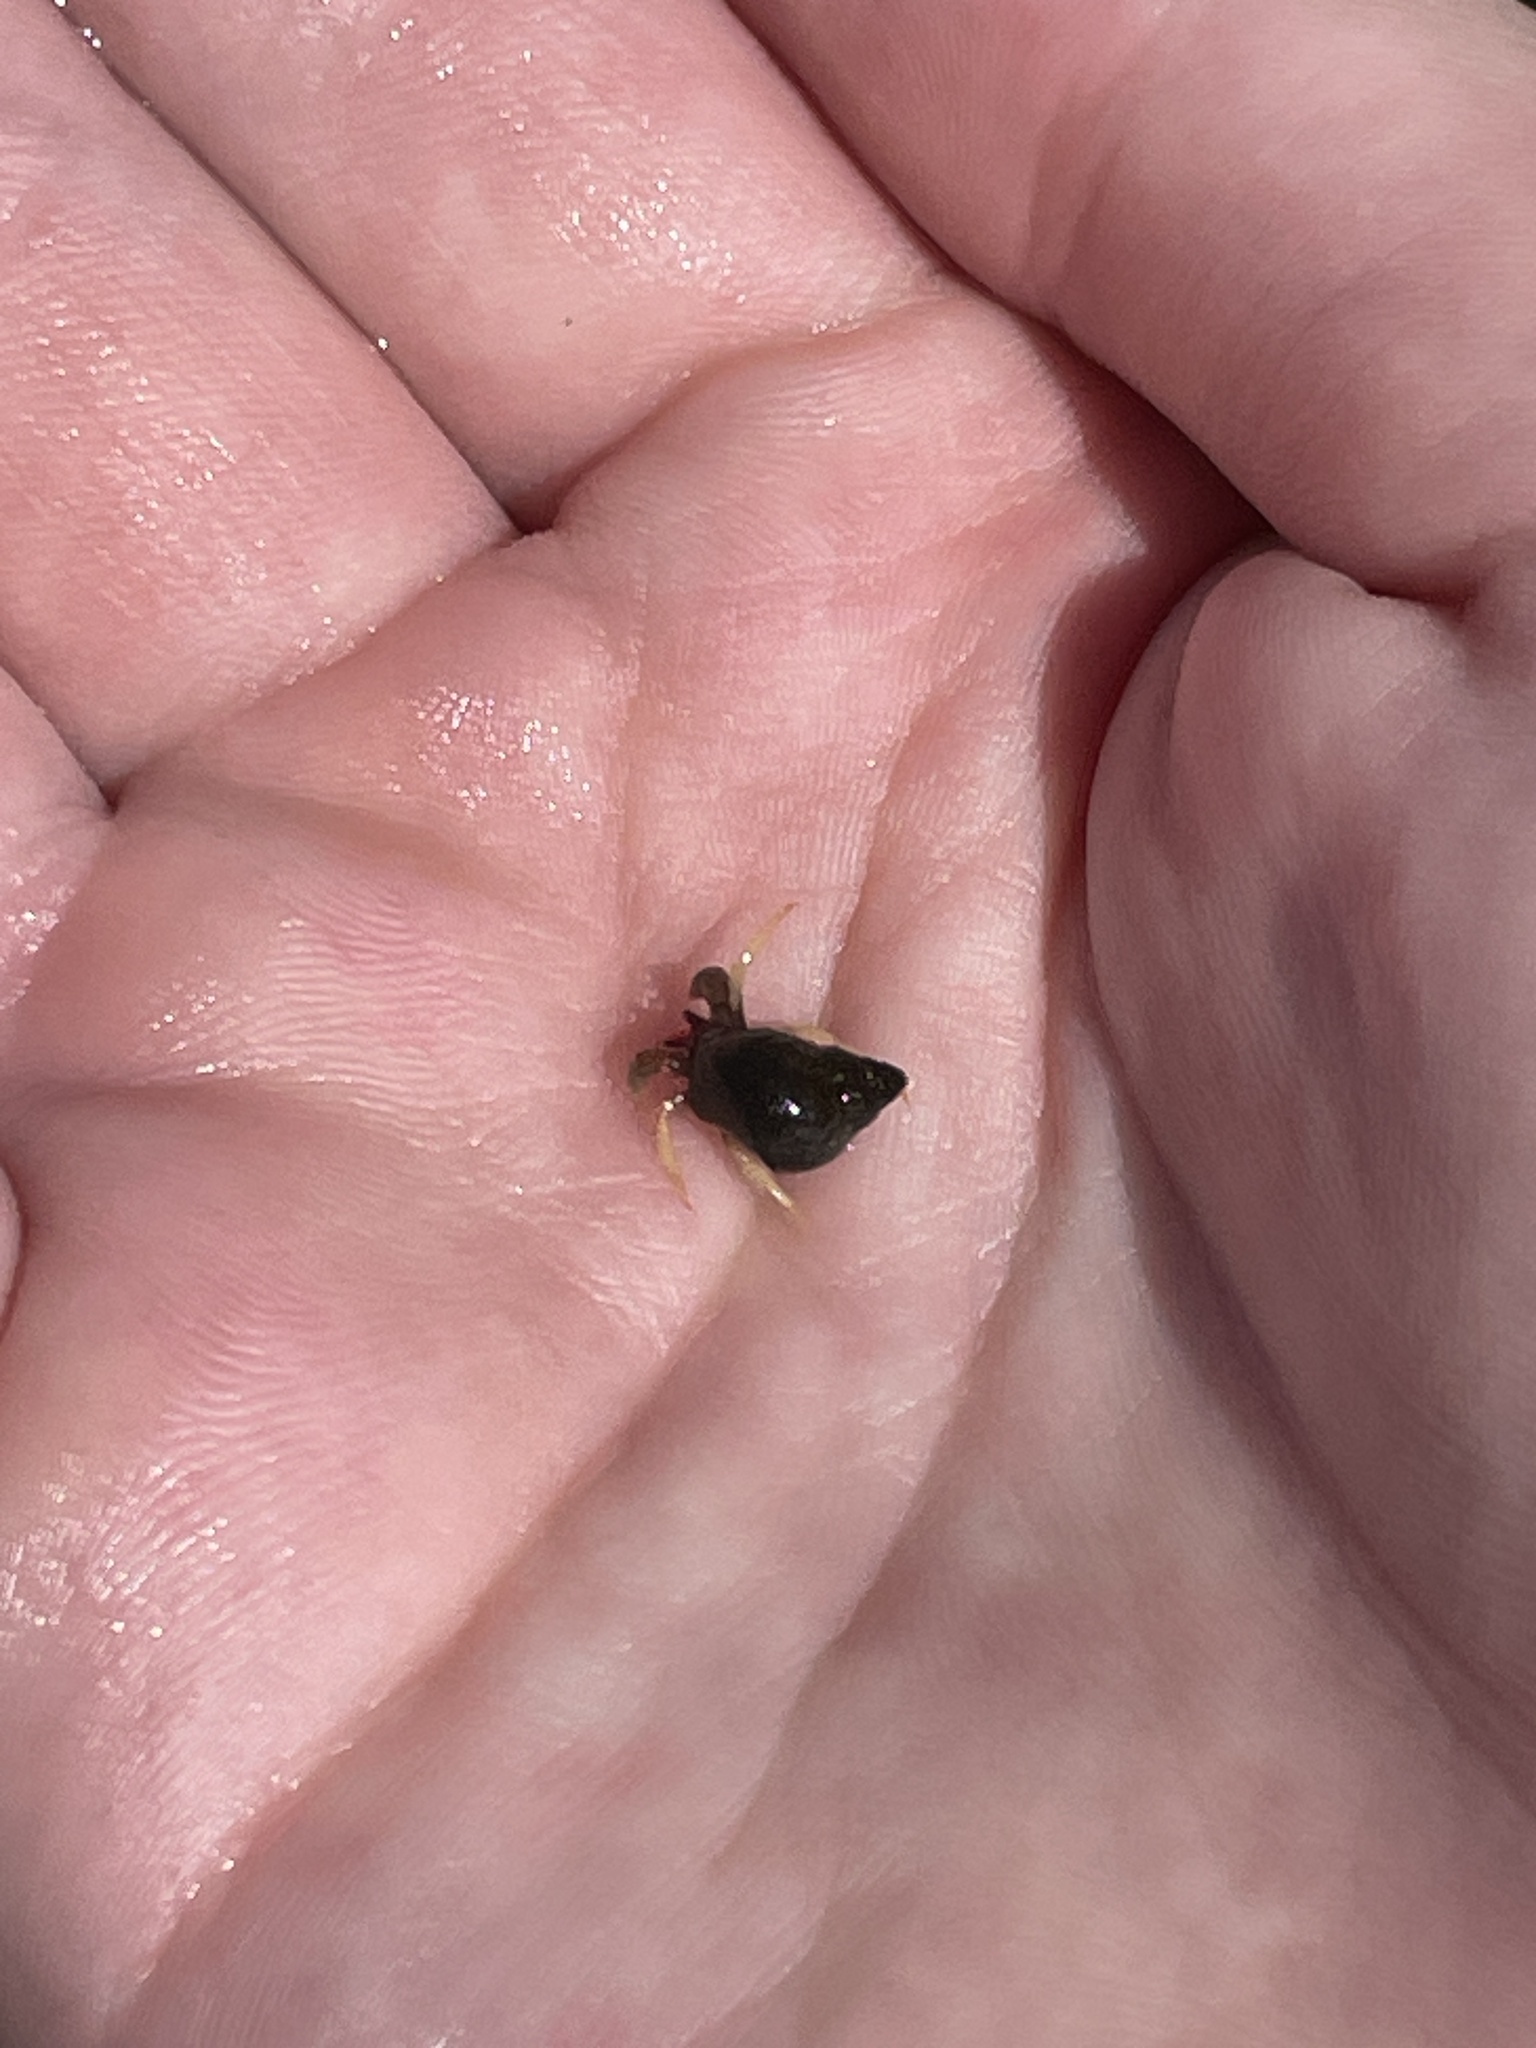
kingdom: Animalia
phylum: Arthropoda
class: Malacostraca
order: Decapoda
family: Paguridae
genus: Pagurus
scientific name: Pagurus granosimanus
